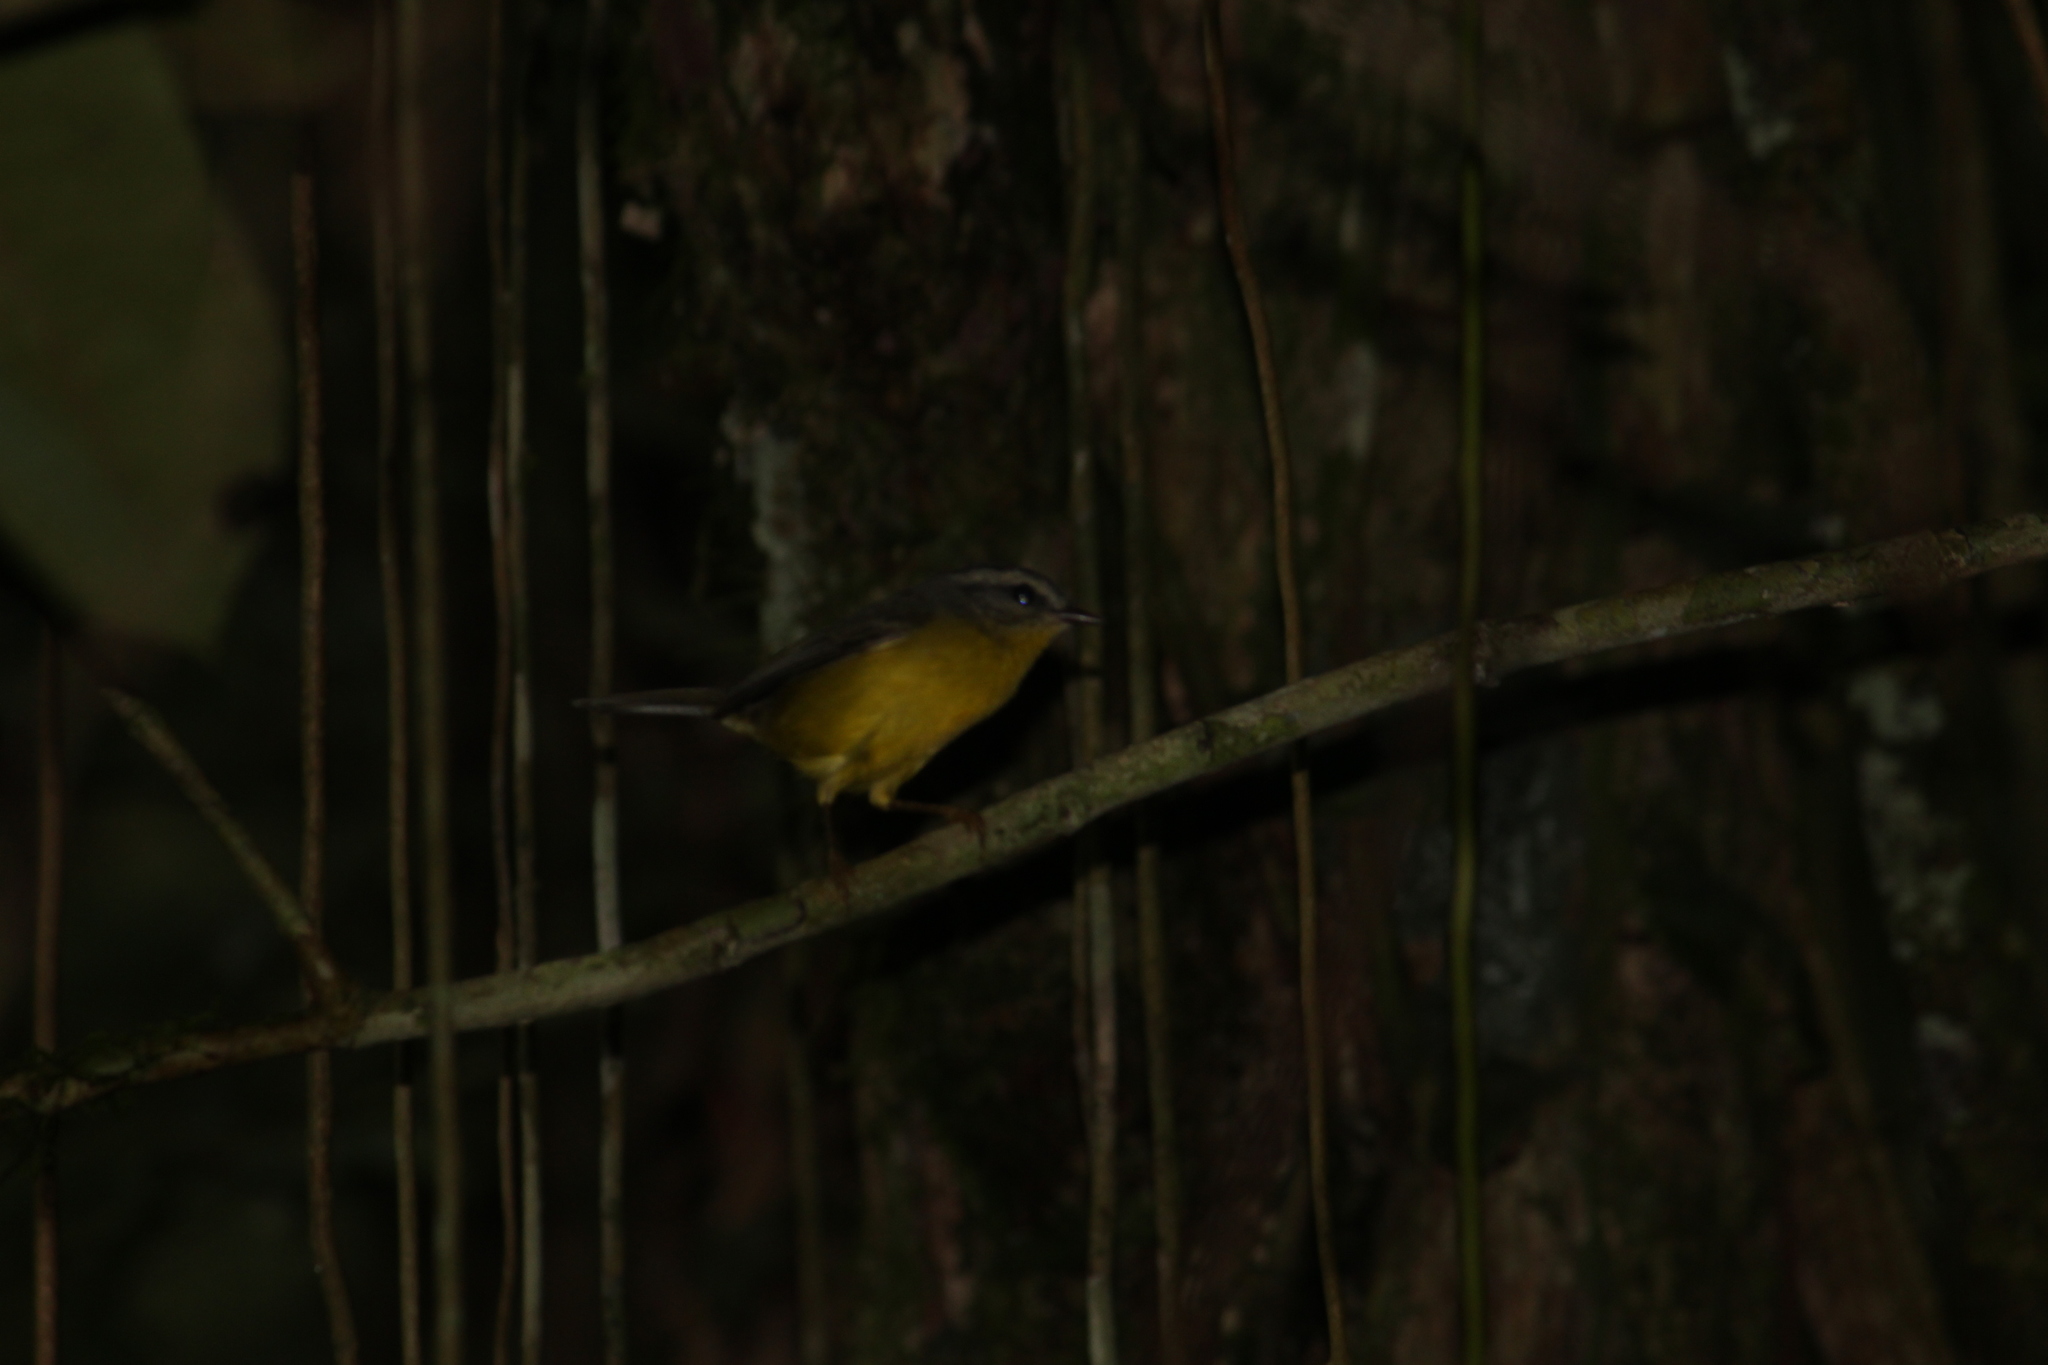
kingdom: Animalia
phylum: Chordata
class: Aves
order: Passeriformes
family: Parulidae
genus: Basileuterus
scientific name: Basileuterus culicivorus
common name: Golden-crowned warbler
